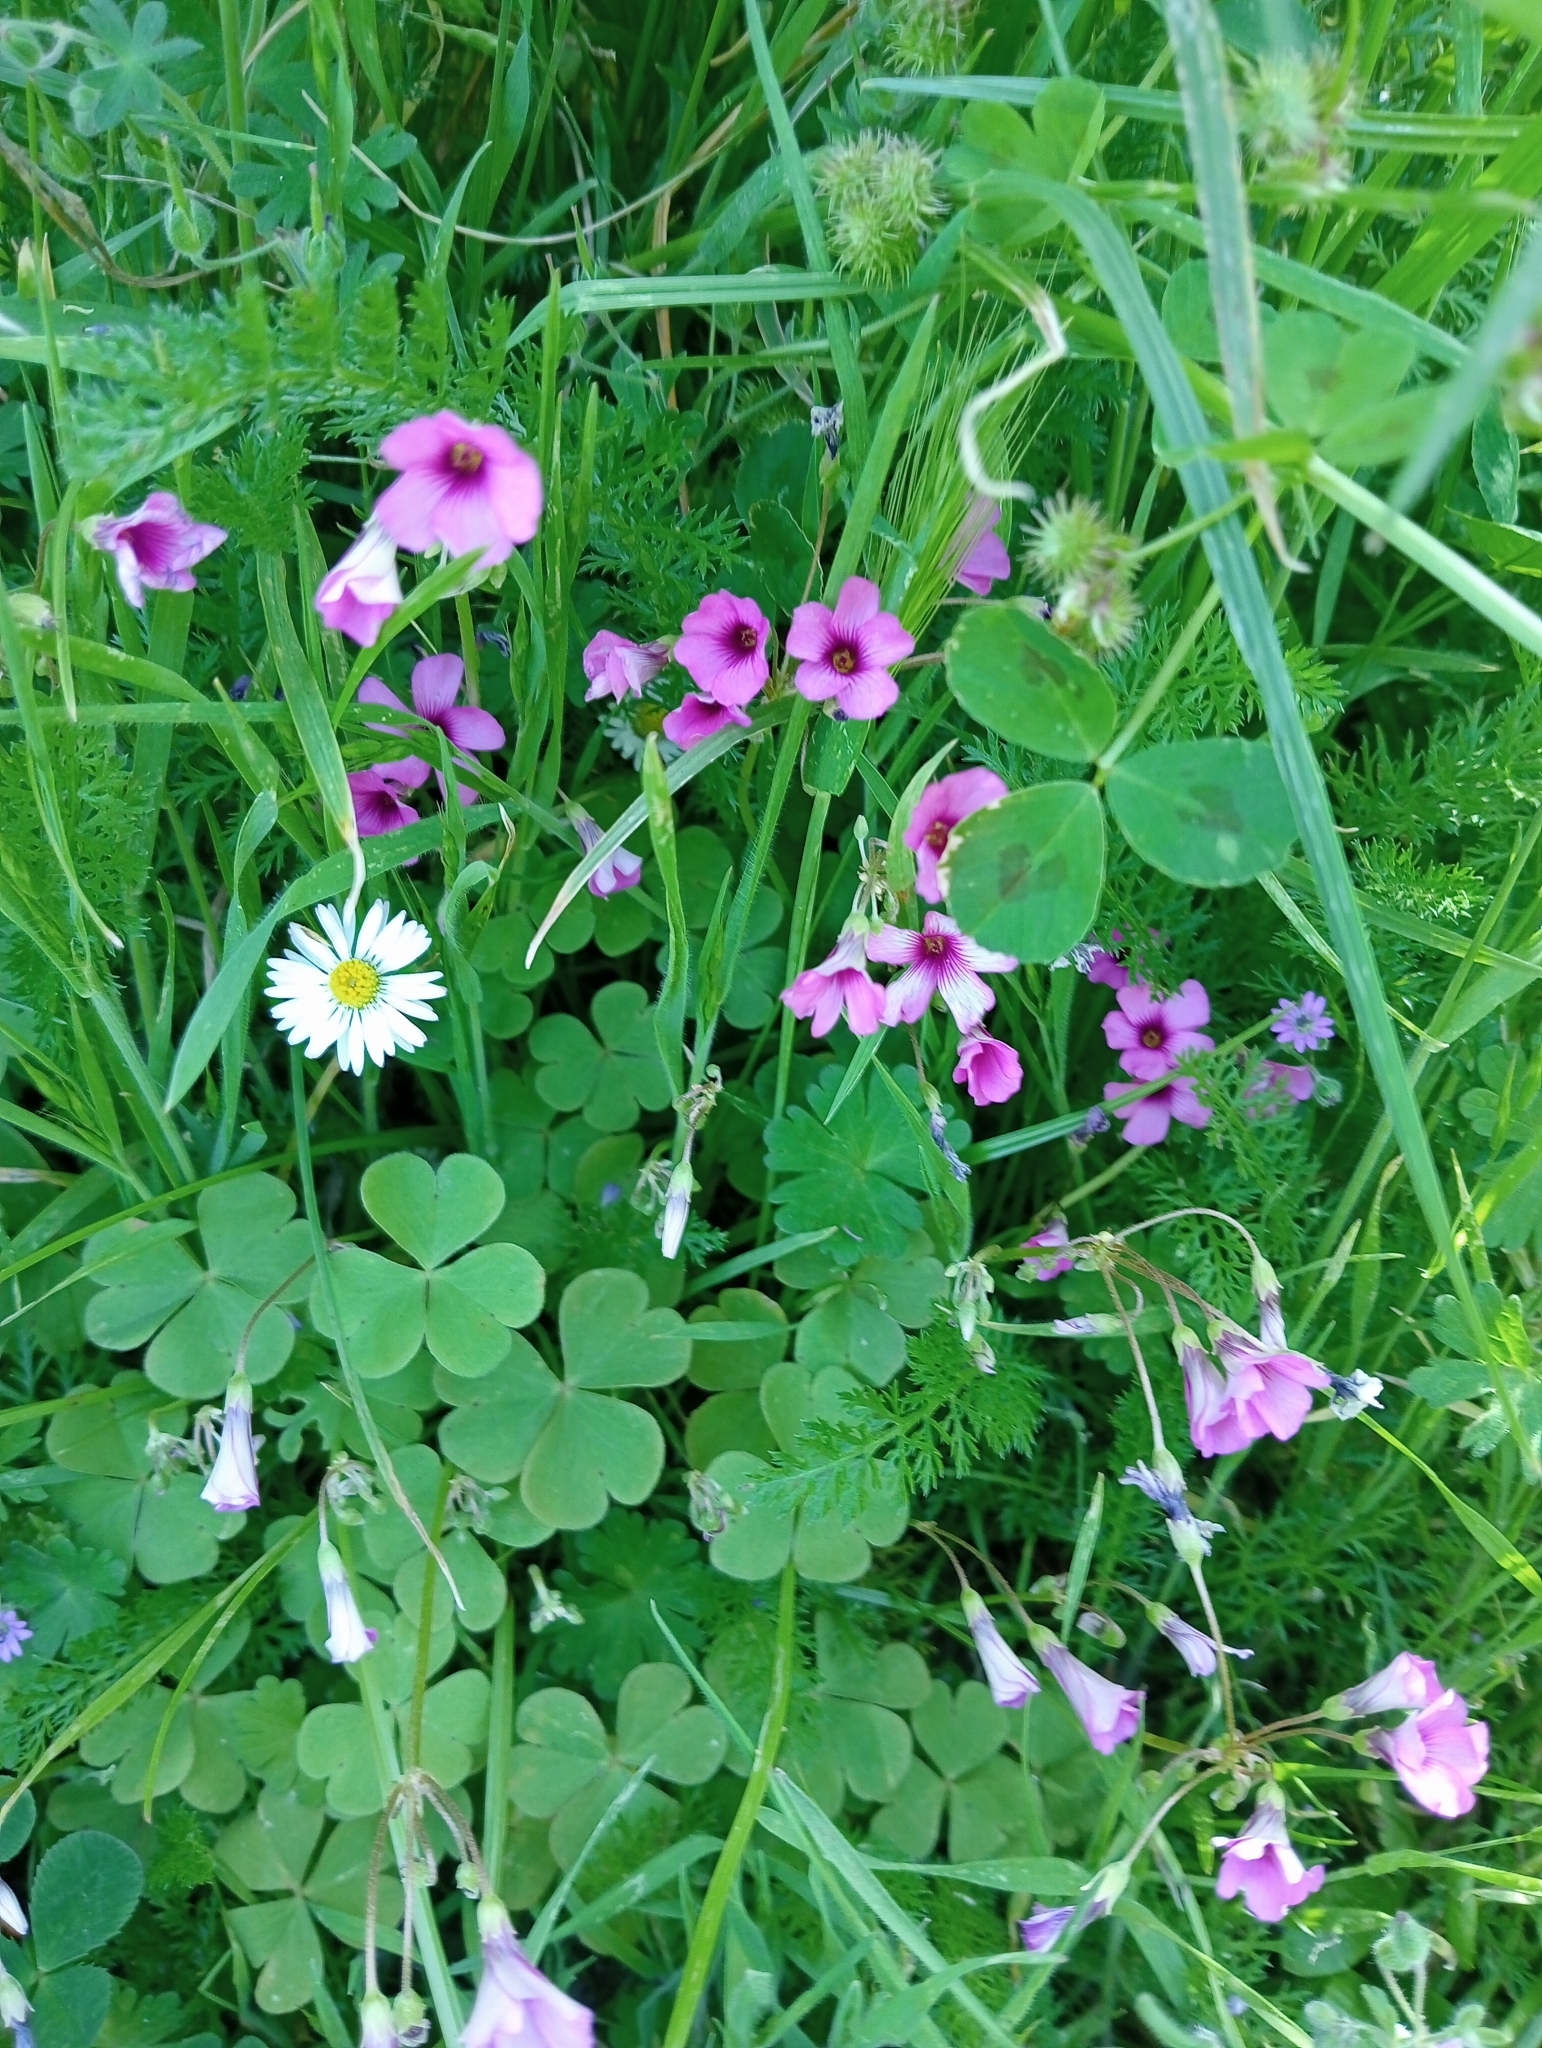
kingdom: Plantae
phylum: Tracheophyta
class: Magnoliopsida
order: Oxalidales
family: Oxalidaceae
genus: Oxalis
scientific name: Oxalis articulata
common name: Pink-sorrel
